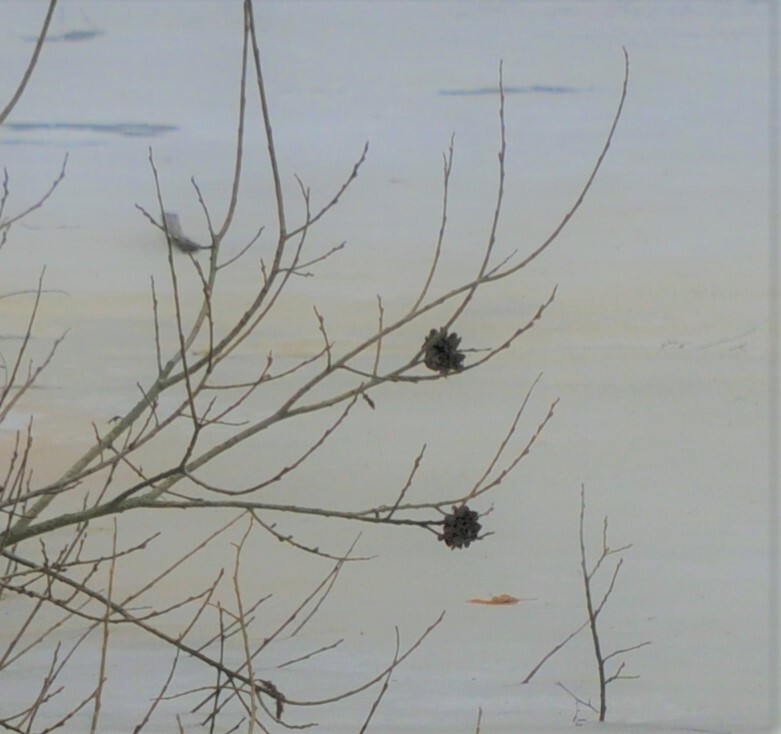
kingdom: Animalia
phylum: Arthropoda
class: Insecta
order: Diptera
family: Cecidomyiidae
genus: Rabdophaga
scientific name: Rabdophaga rosaria
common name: Willow rose gall midge
